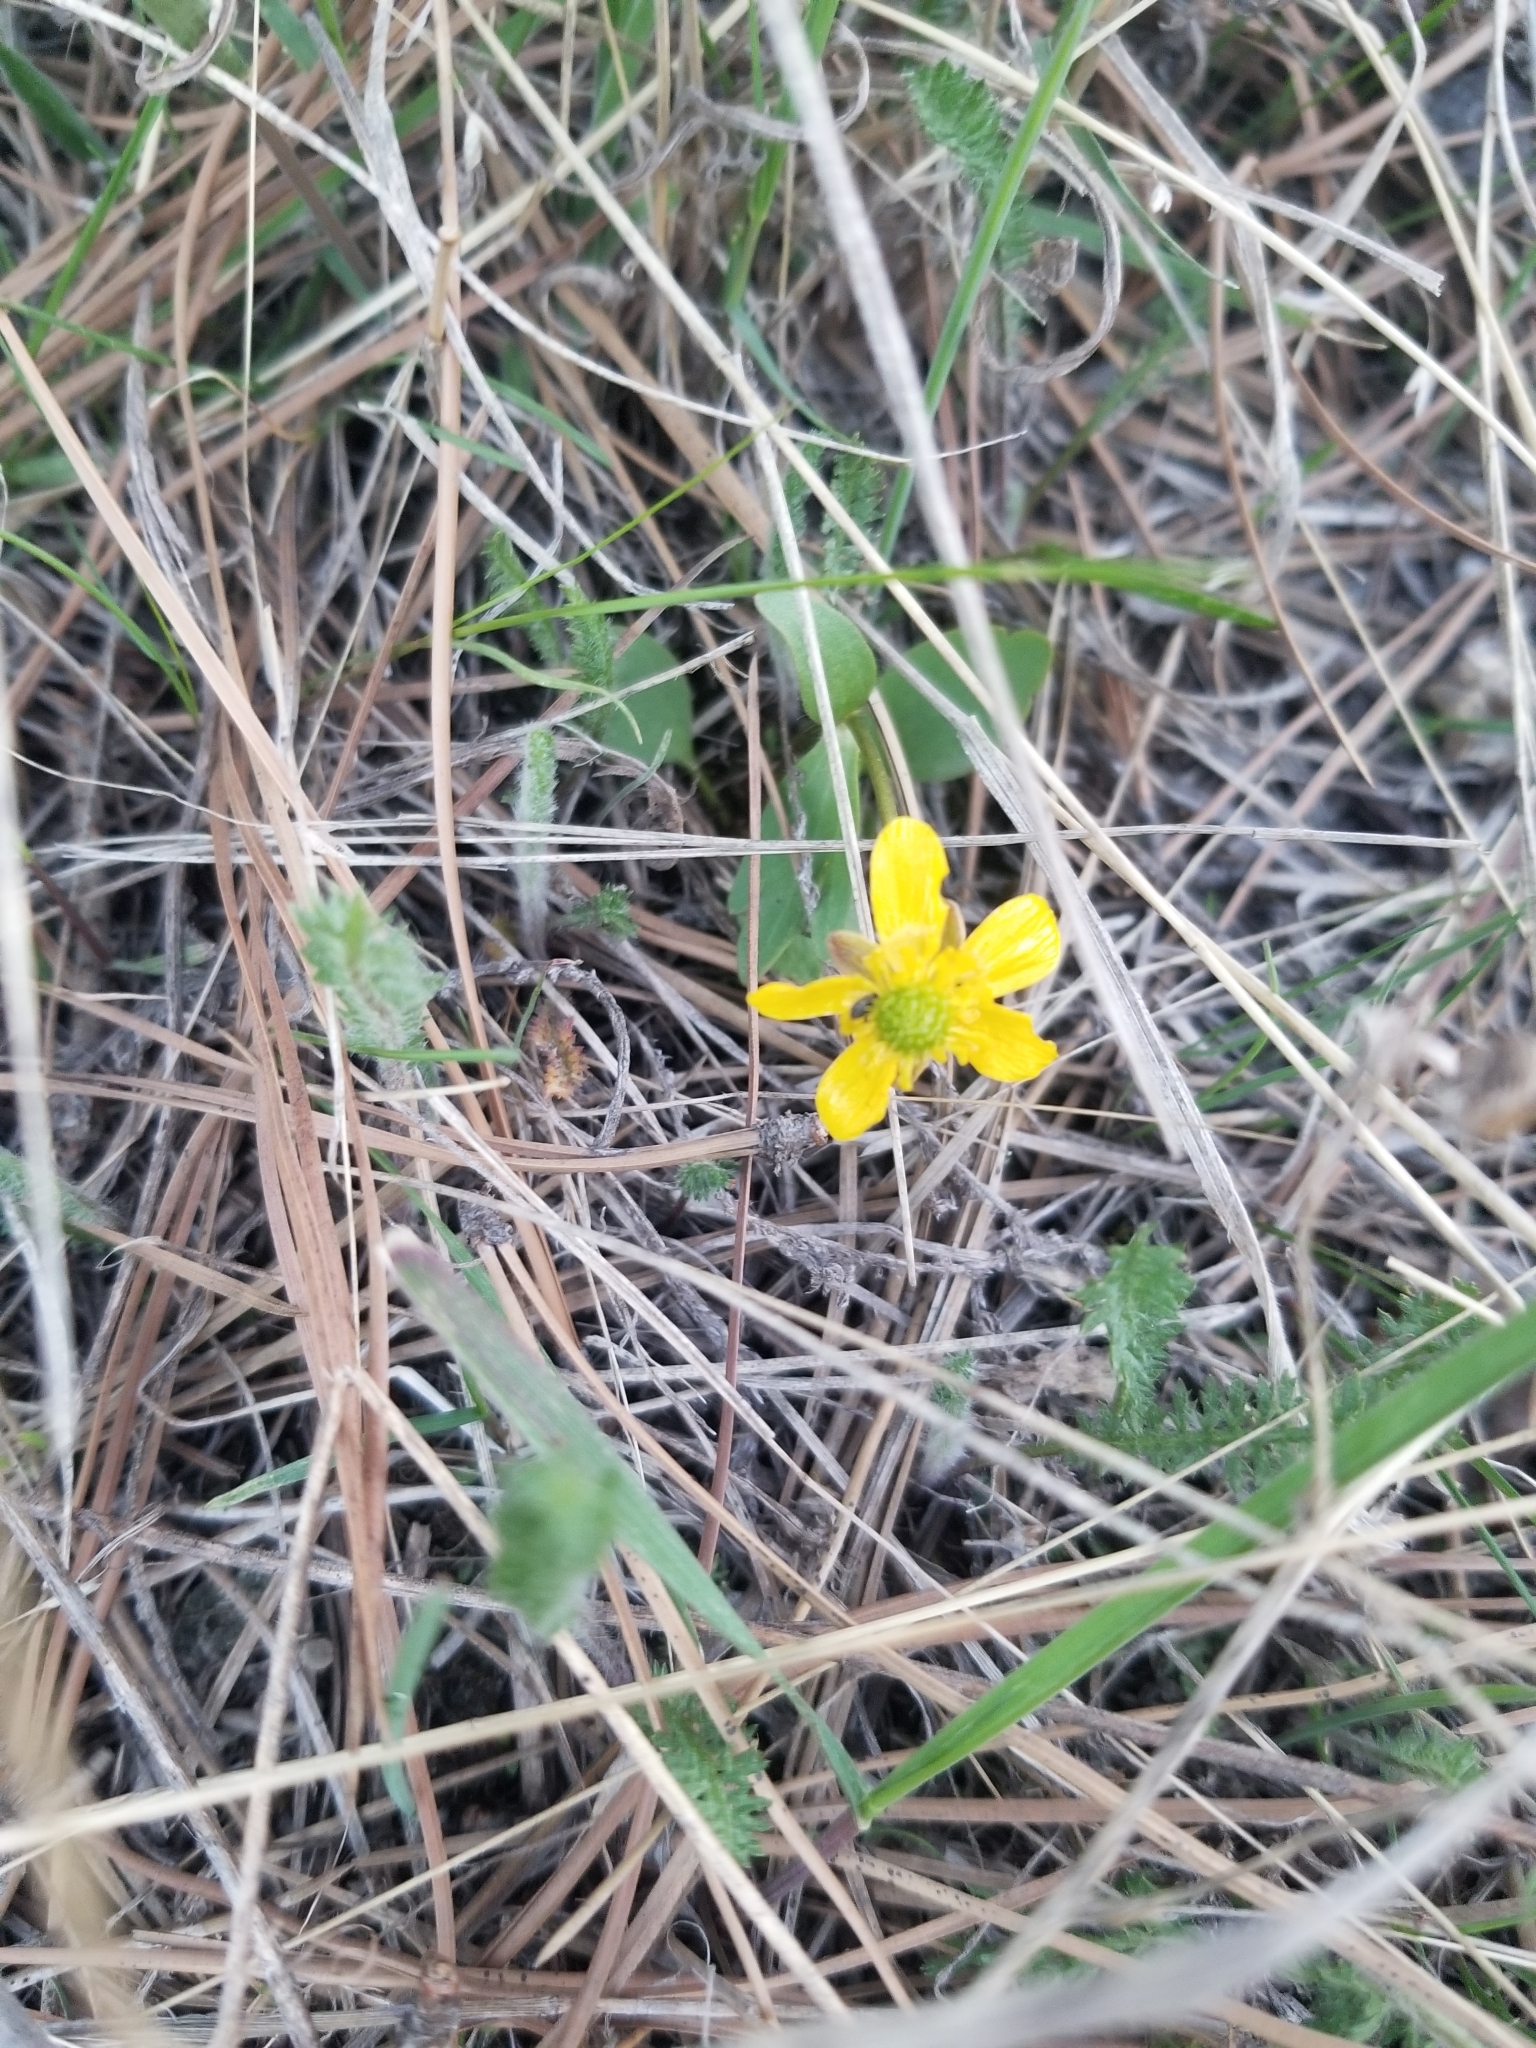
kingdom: Plantae
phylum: Tracheophyta
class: Magnoliopsida
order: Ranunculales
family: Ranunculaceae
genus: Ranunculus
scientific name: Ranunculus glaberrimus
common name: Sagebrush buttercup
